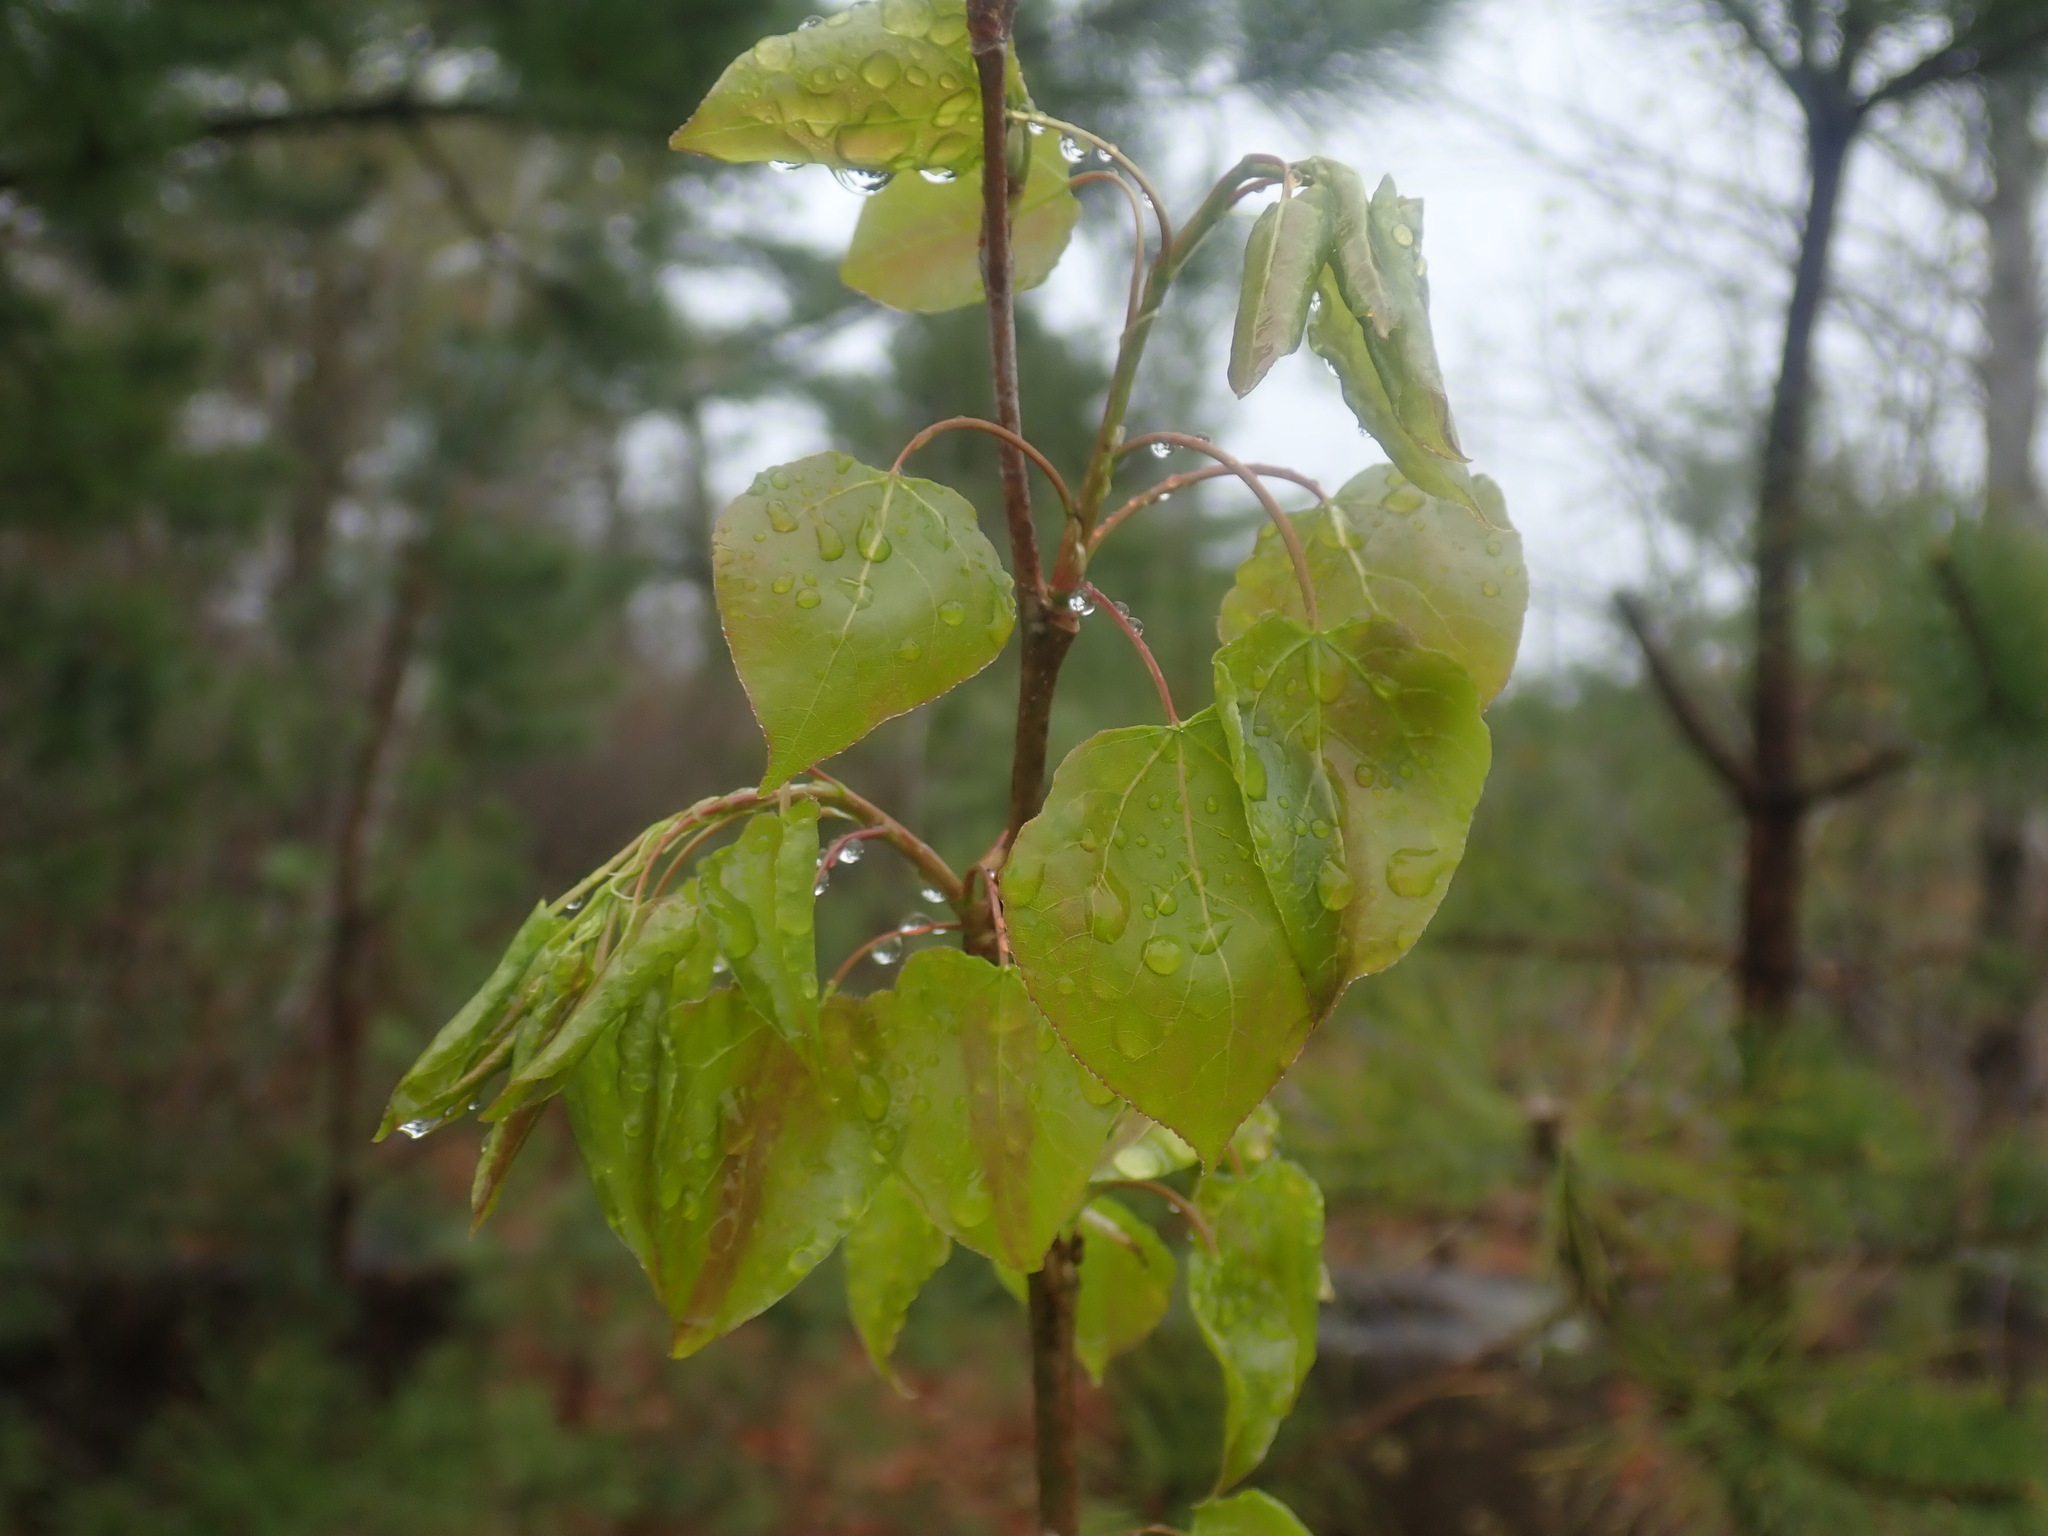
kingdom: Plantae
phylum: Tracheophyta
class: Magnoliopsida
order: Malpighiales
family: Salicaceae
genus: Populus
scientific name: Populus tremuloides
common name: Quaking aspen
